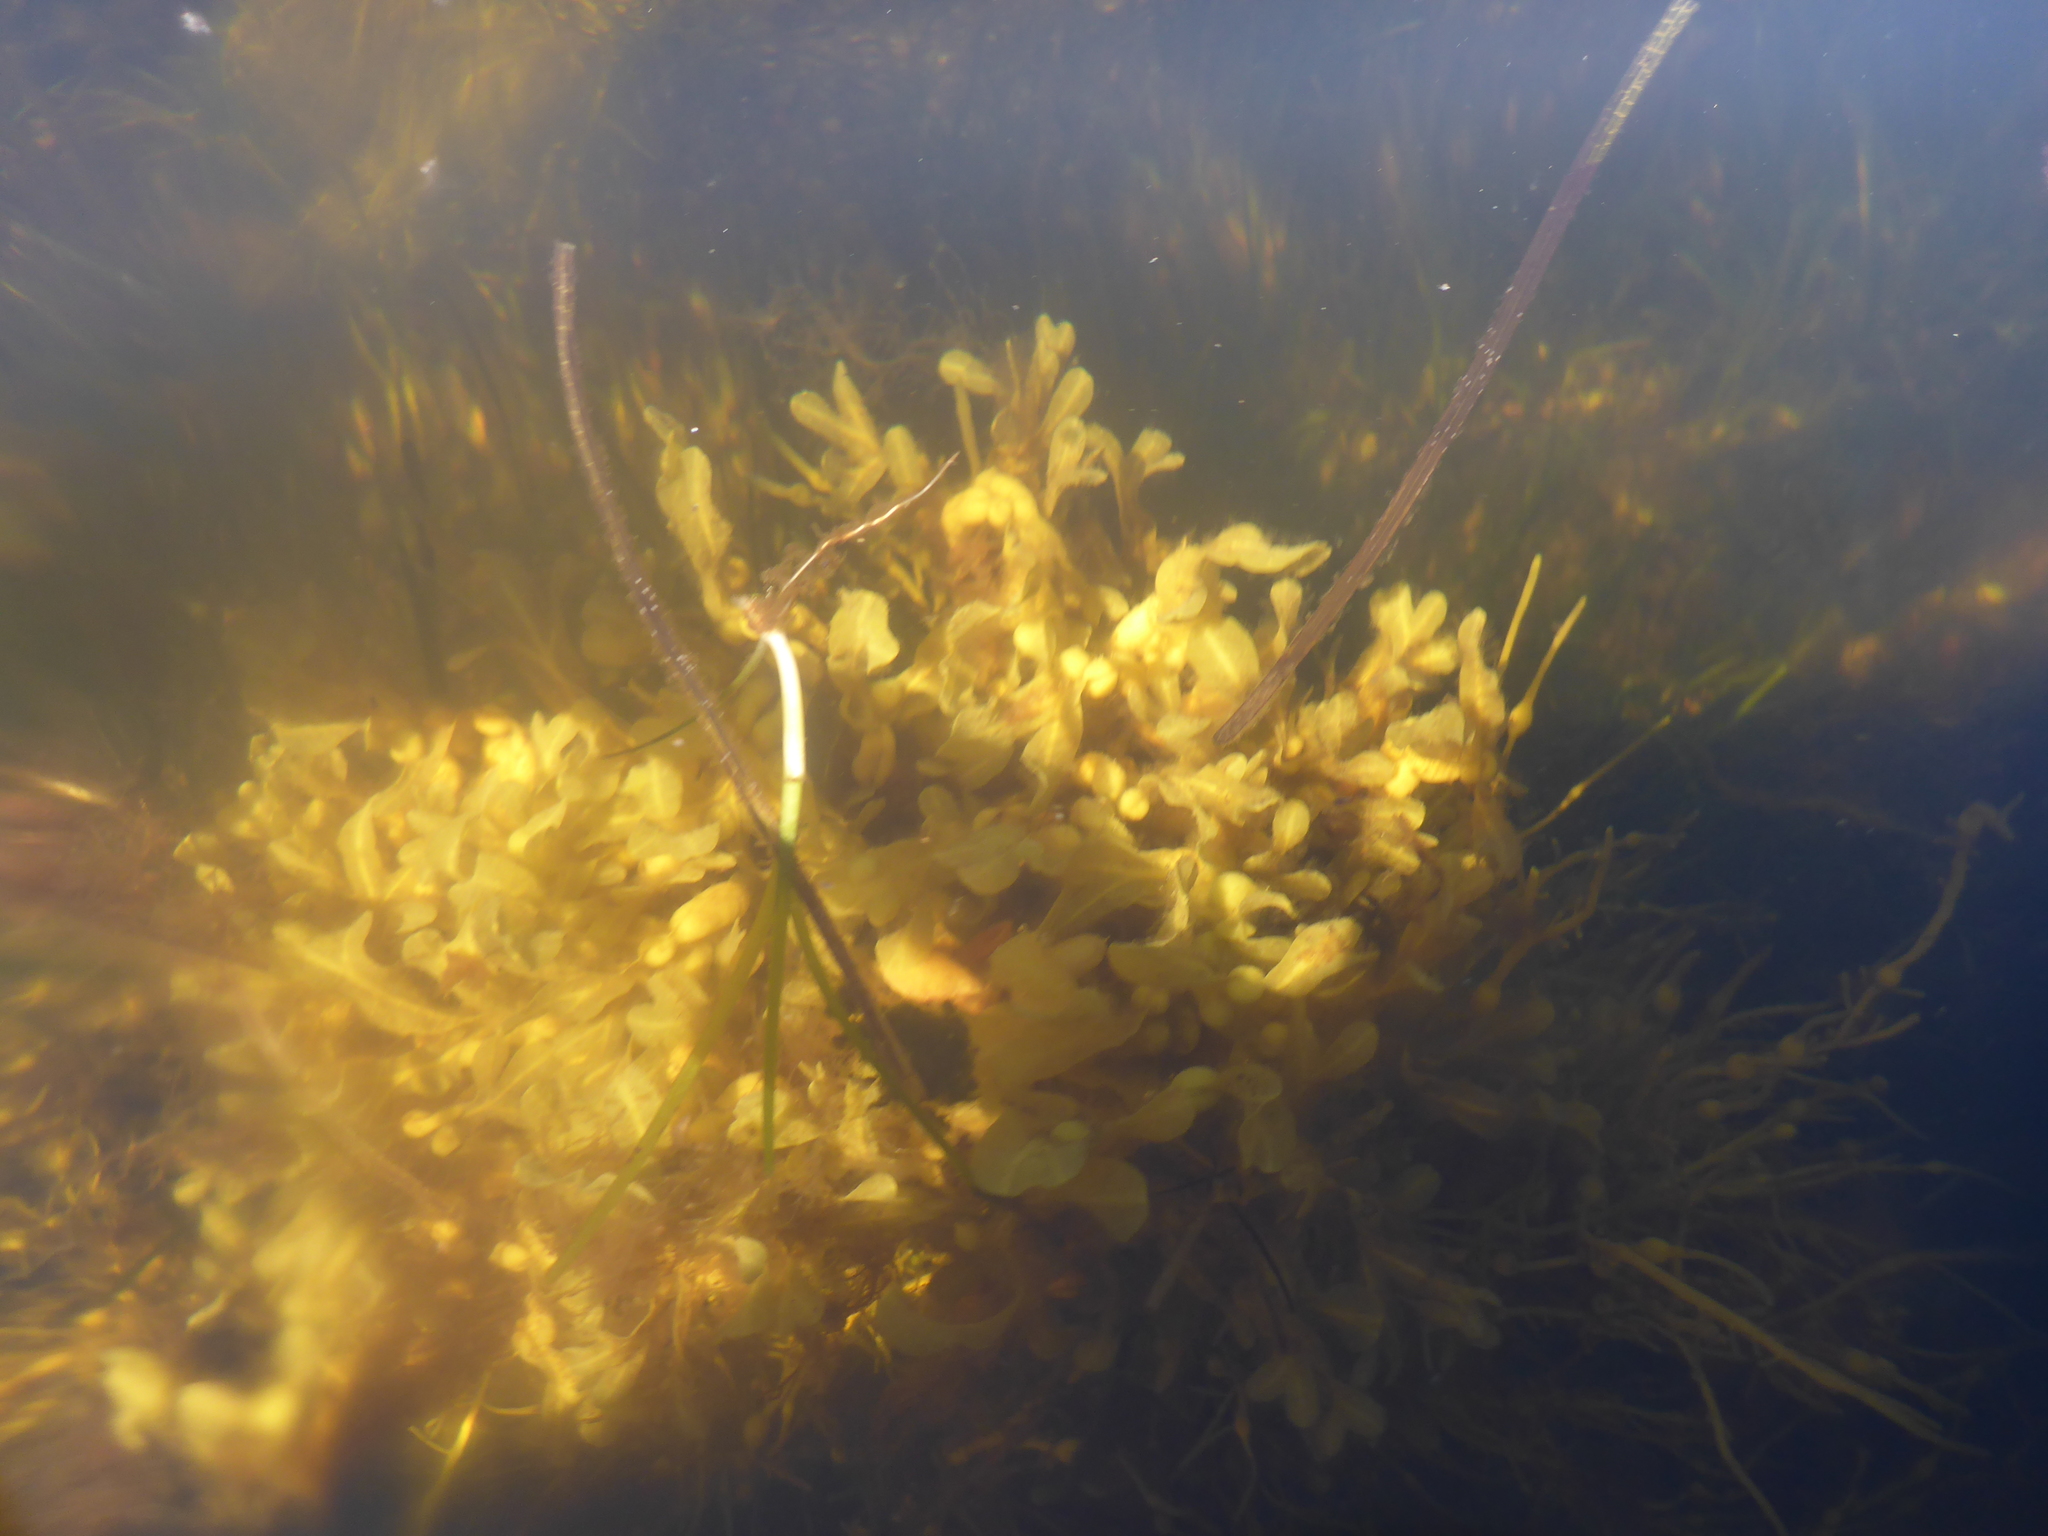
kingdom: Chromista
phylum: Ochrophyta
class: Phaeophyceae
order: Fucales
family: Fucaceae
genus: Fucus
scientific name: Fucus vesiculosus
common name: Bladder wrack
